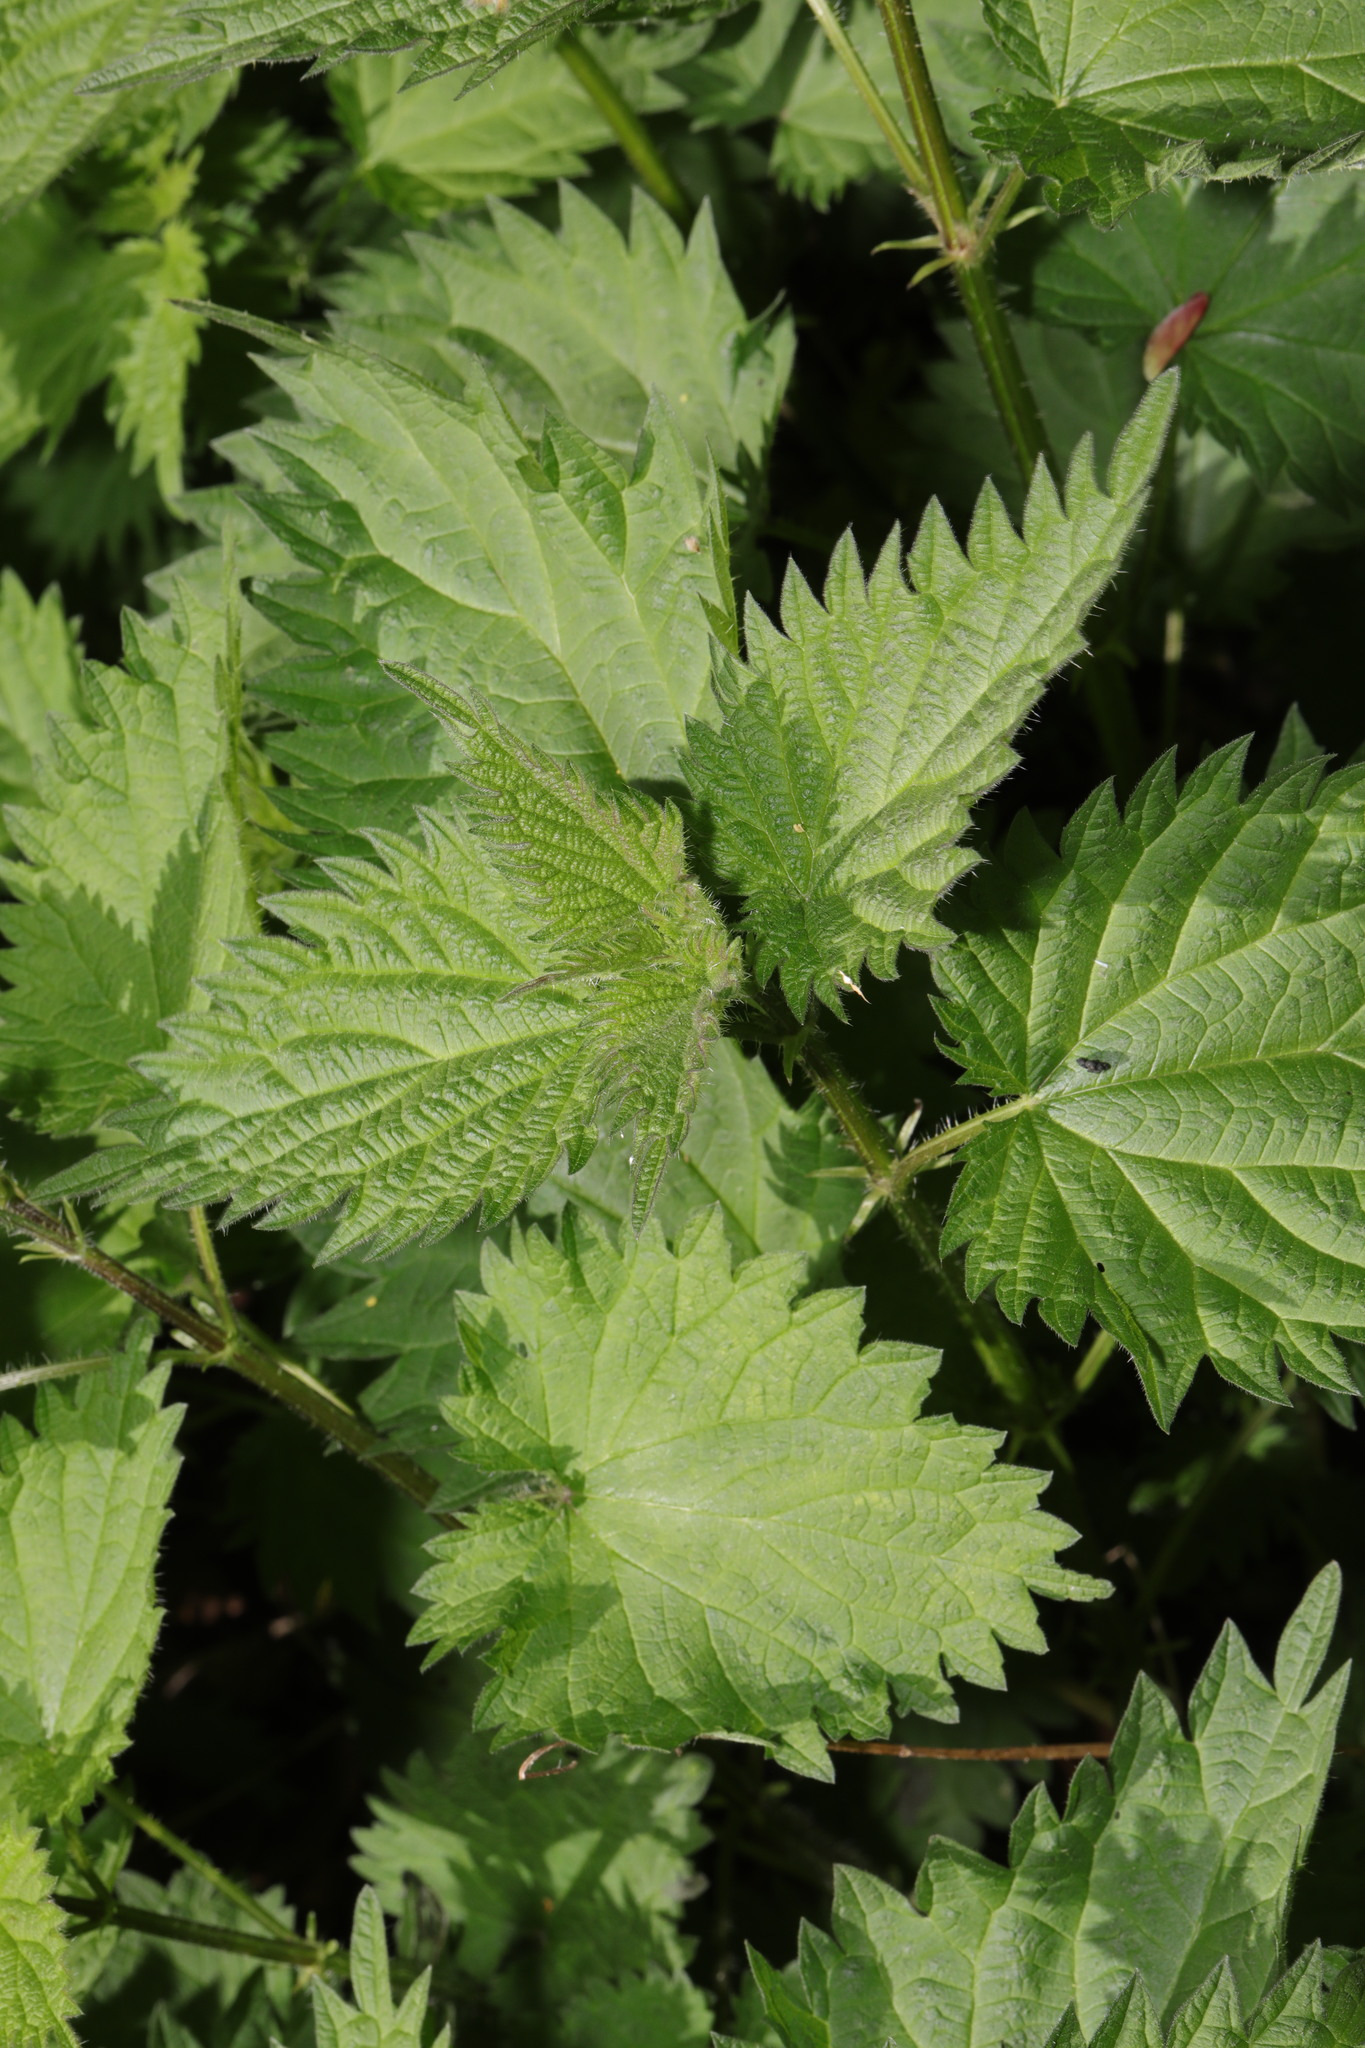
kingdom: Plantae
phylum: Tracheophyta
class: Magnoliopsida
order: Rosales
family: Urticaceae
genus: Urtica
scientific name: Urtica dioica
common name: Common nettle
